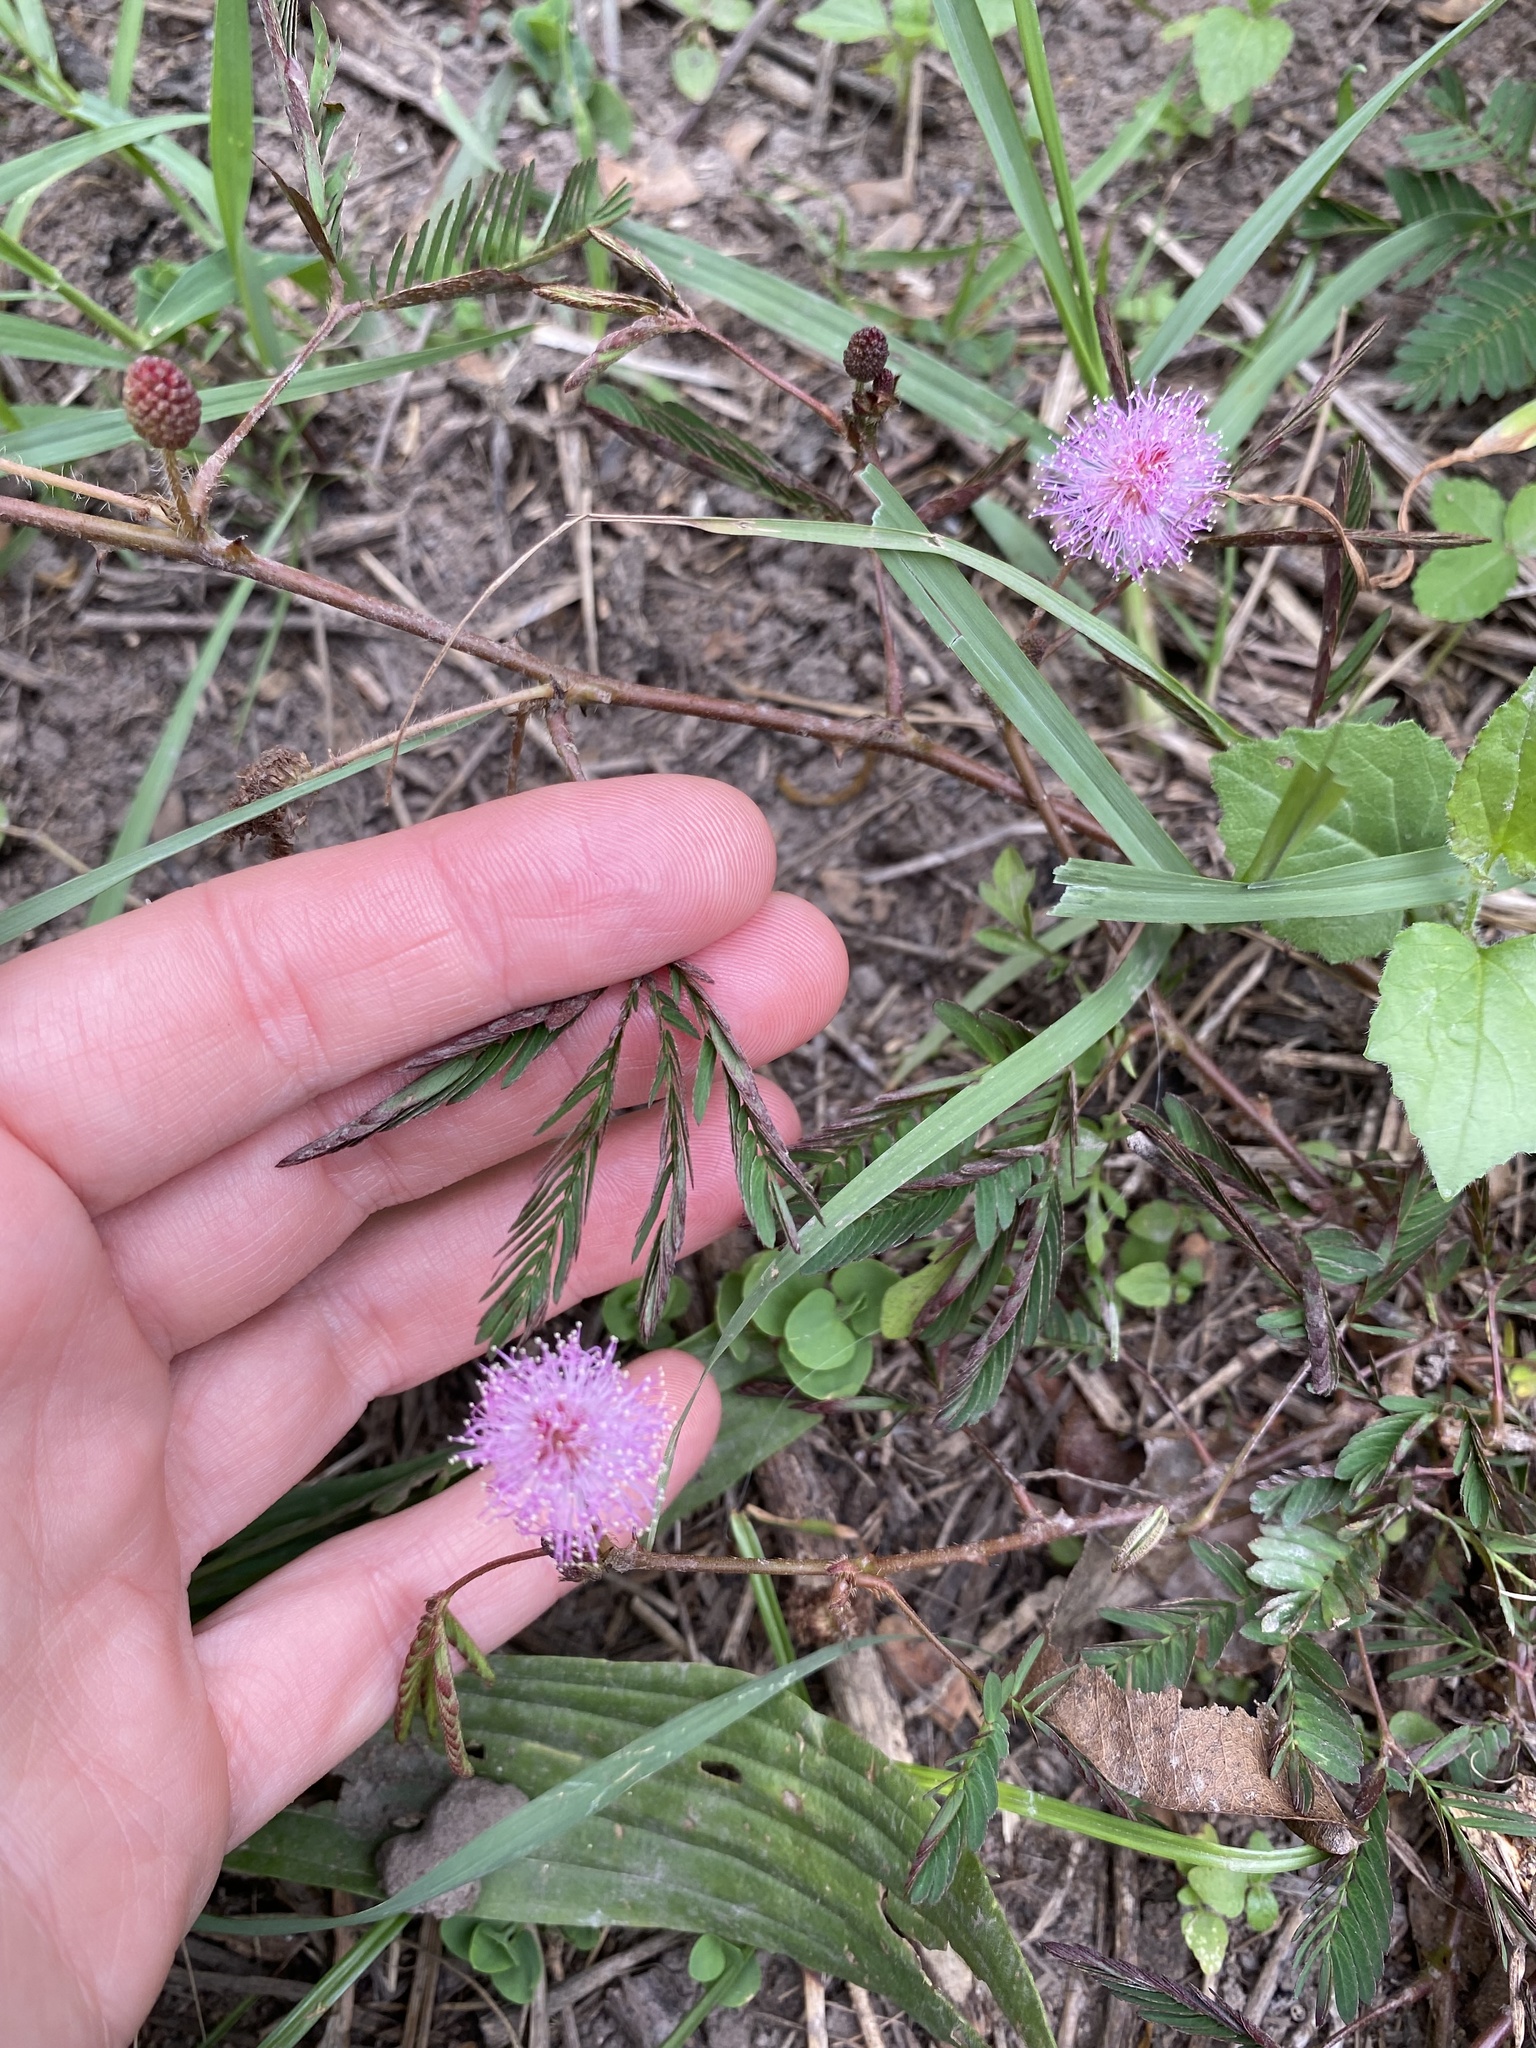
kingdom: Plantae
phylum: Tracheophyta
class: Magnoliopsida
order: Fabales
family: Fabaceae
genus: Mimosa
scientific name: Mimosa pudica
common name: Sensitive plant
